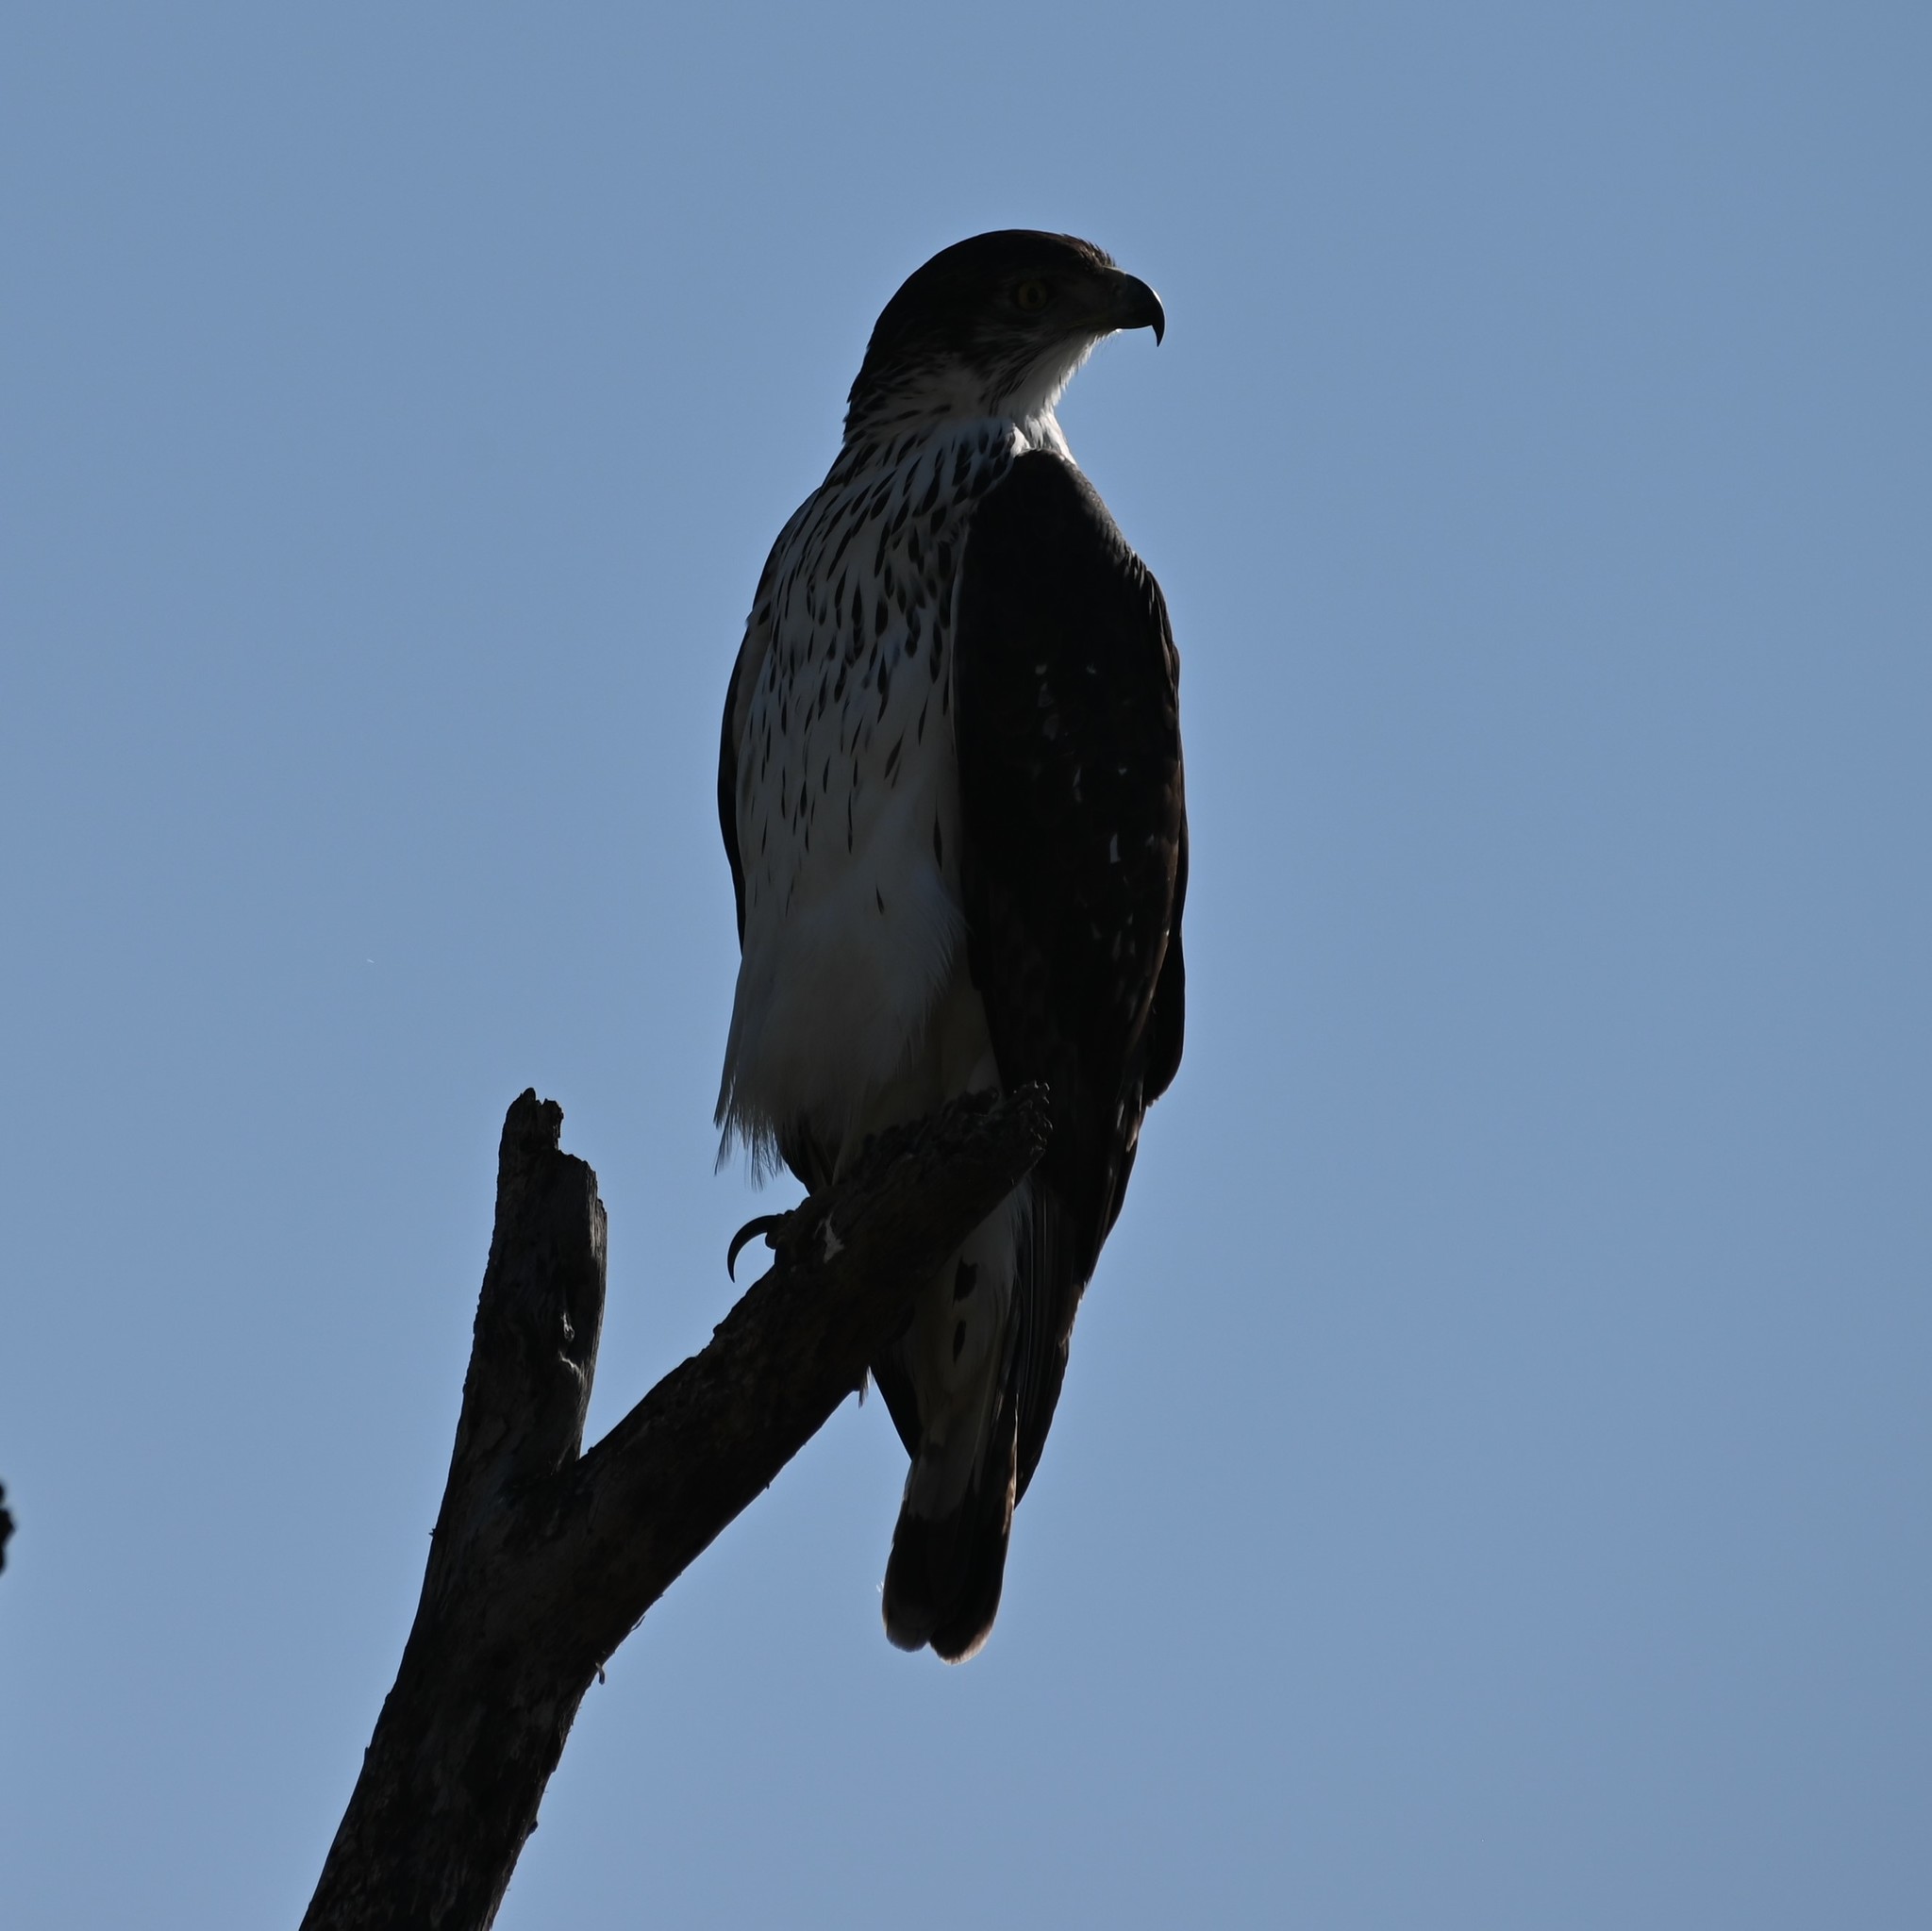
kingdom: Animalia
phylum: Chordata
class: Aves
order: Accipitriformes
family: Accipitridae
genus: Aquila
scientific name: Aquila spilogaster
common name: African hawk-eagle
